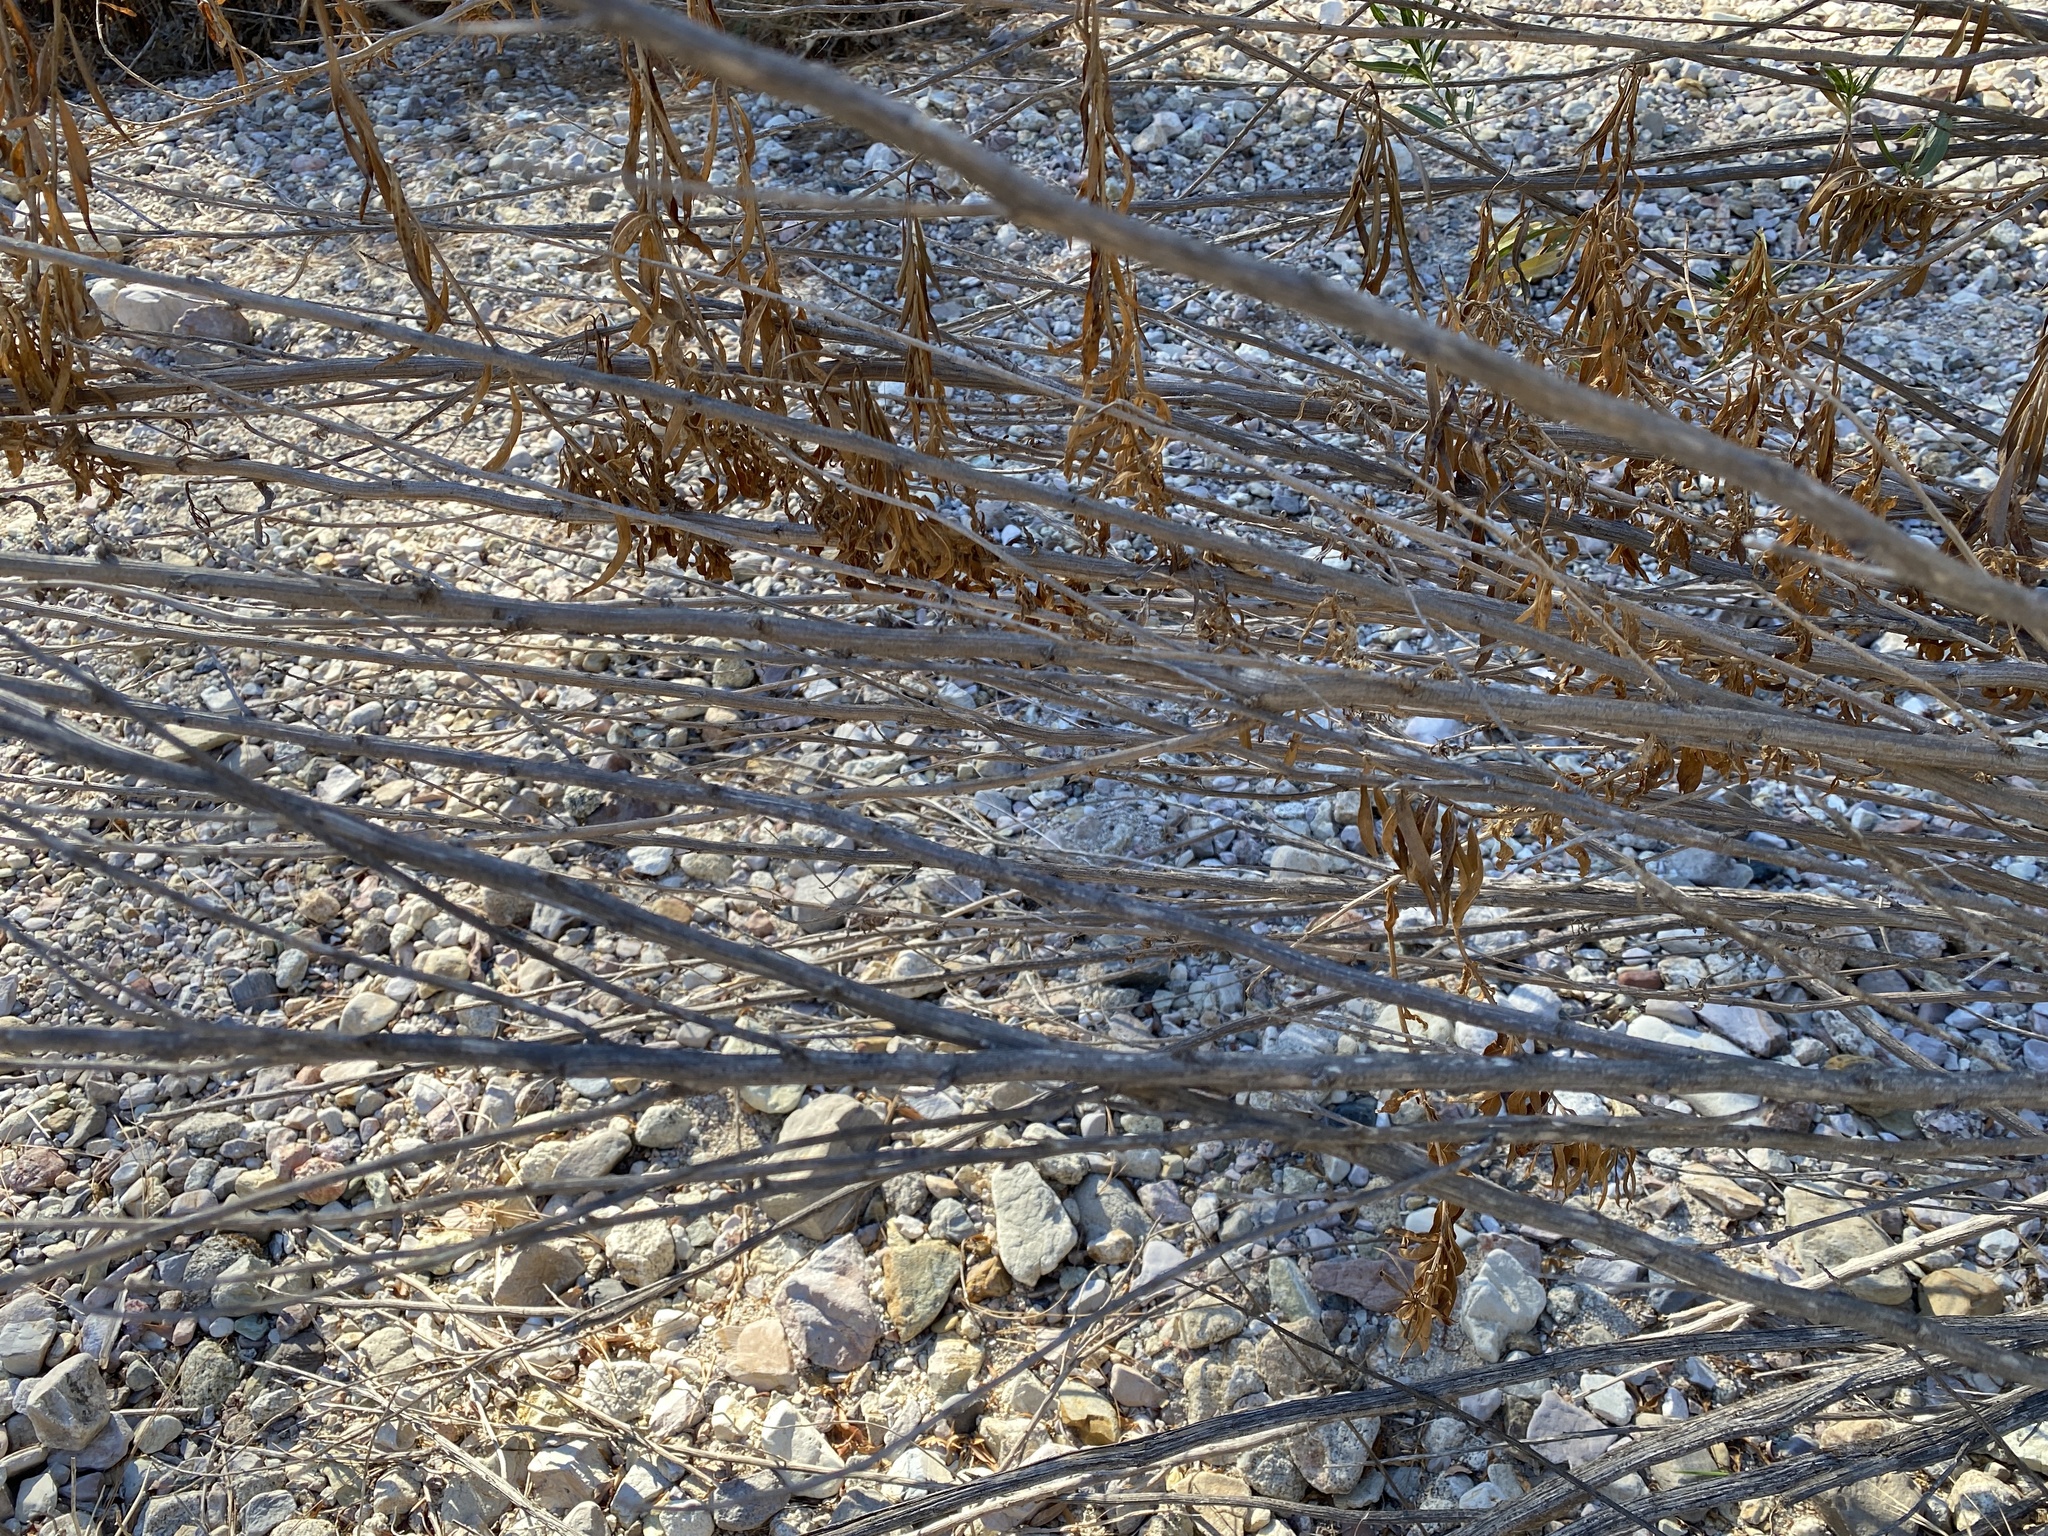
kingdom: Plantae
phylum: Tracheophyta
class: Magnoliopsida
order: Asterales
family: Asteraceae
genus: Baccharis
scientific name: Baccharis salicifolia
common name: Sticky baccharis
